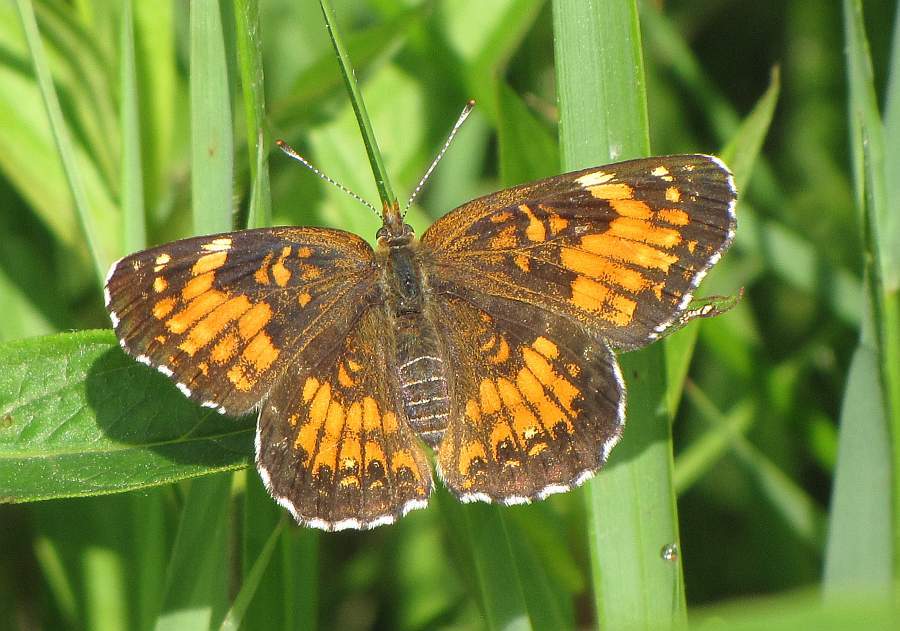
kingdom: Animalia
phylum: Arthropoda
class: Insecta
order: Lepidoptera
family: Nymphalidae
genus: Chlosyne
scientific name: Chlosyne harrisii
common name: Harris's checkerspot
